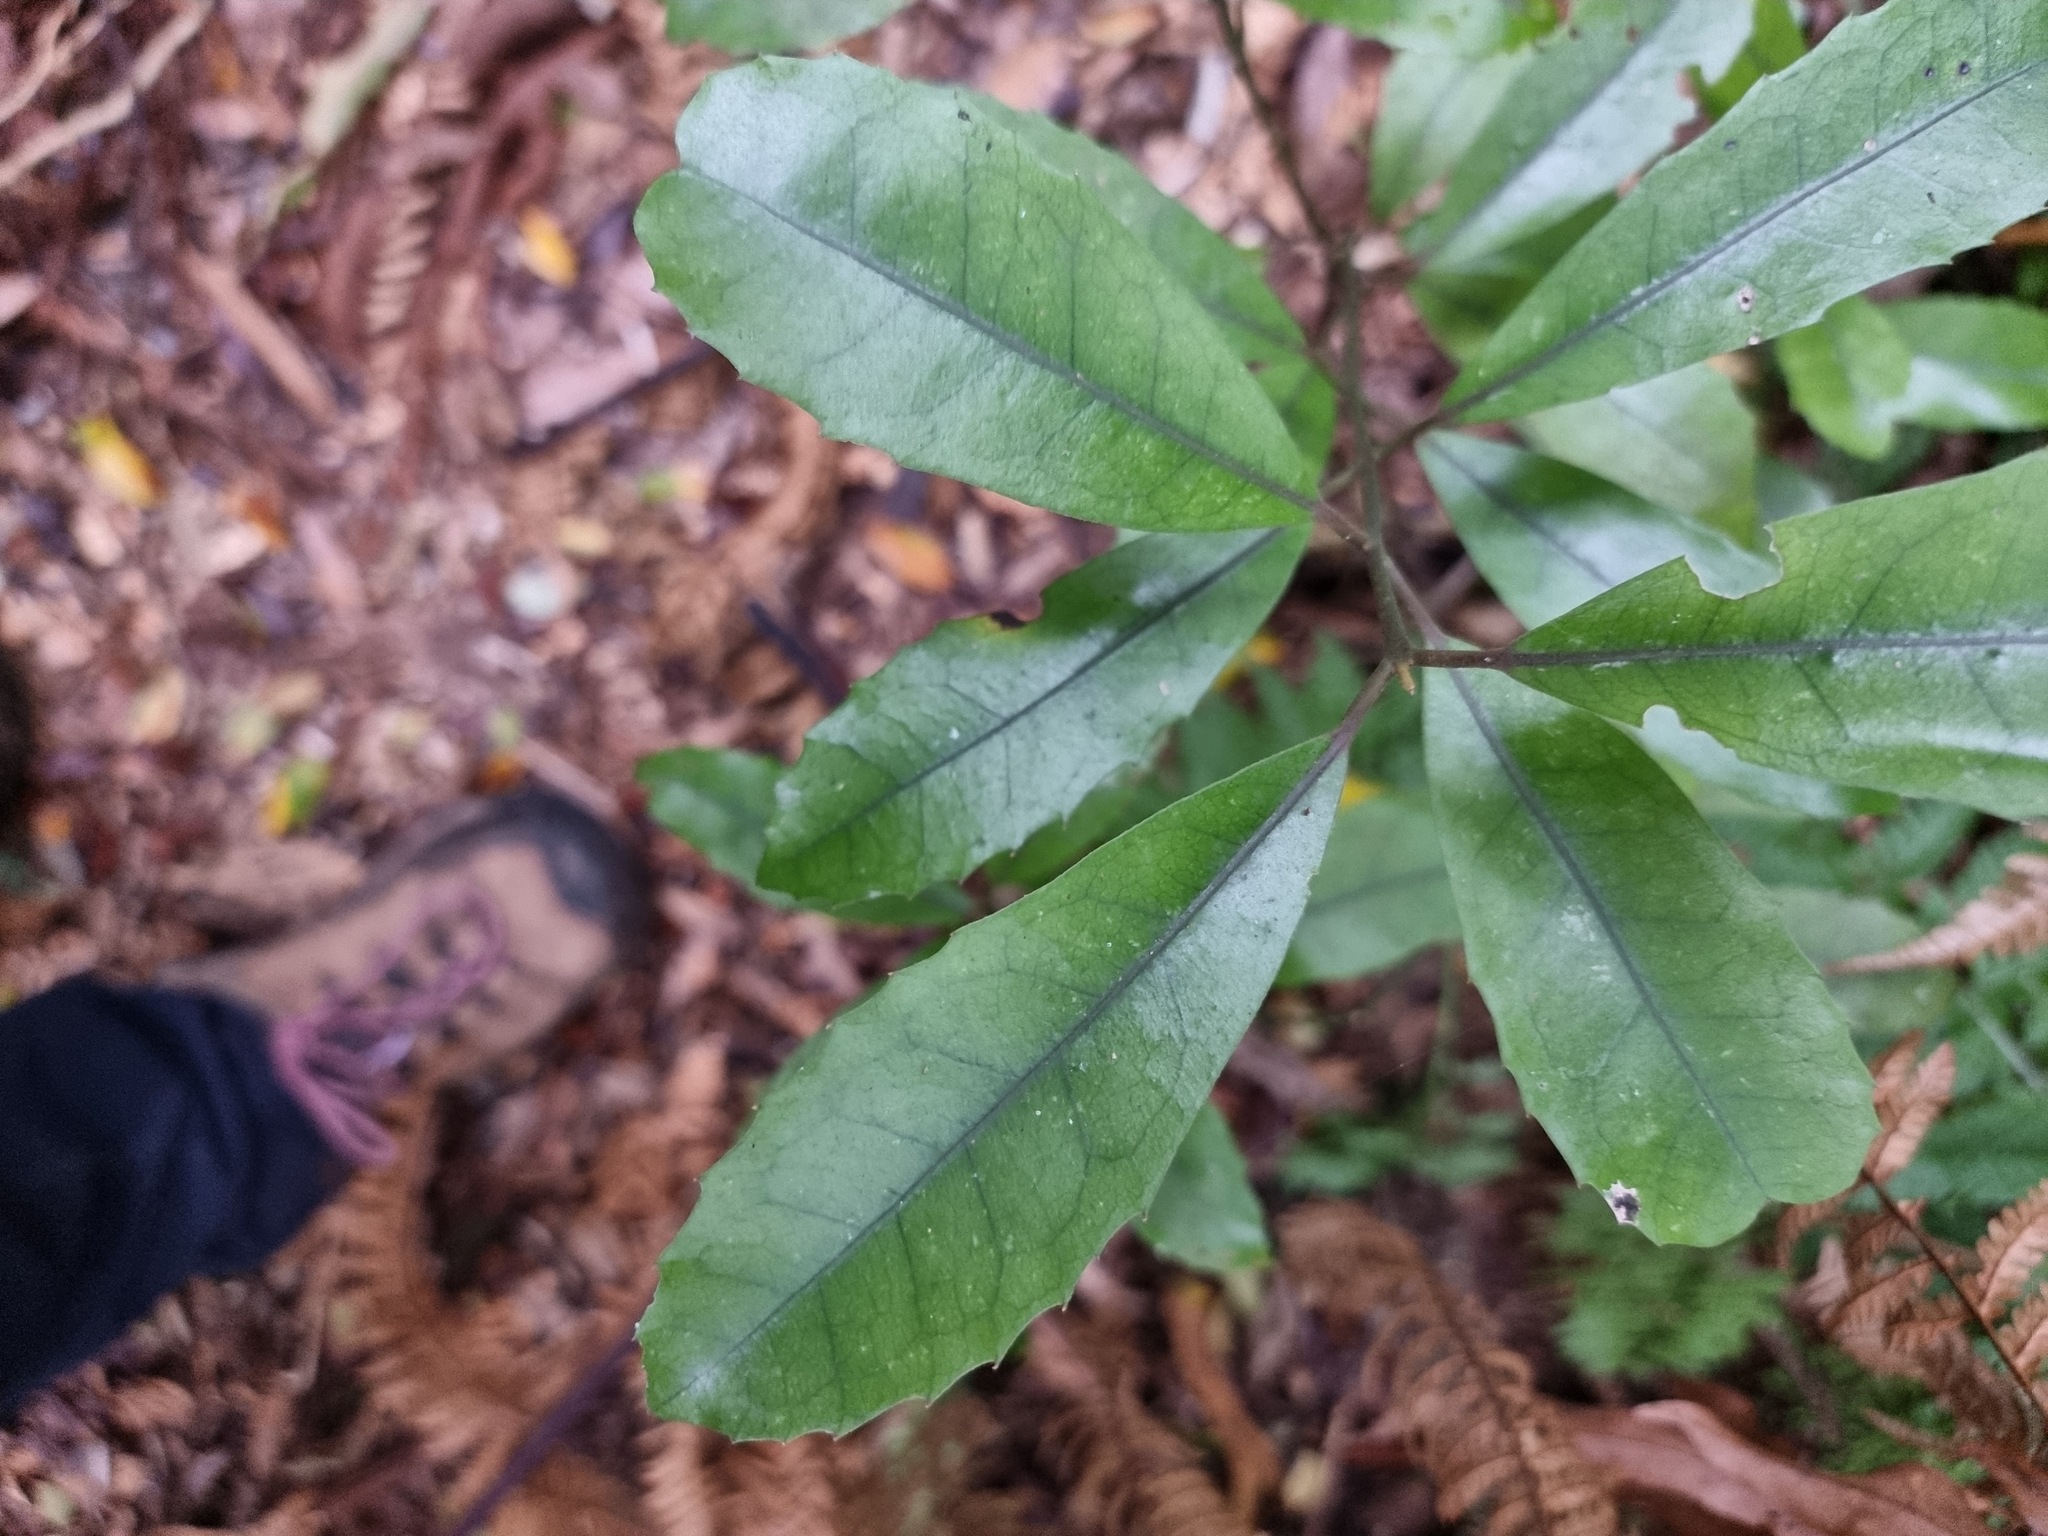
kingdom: Plantae
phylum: Tracheophyta
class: Magnoliopsida
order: Laurales
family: Monimiaceae
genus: Hedycarya
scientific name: Hedycarya arborea
